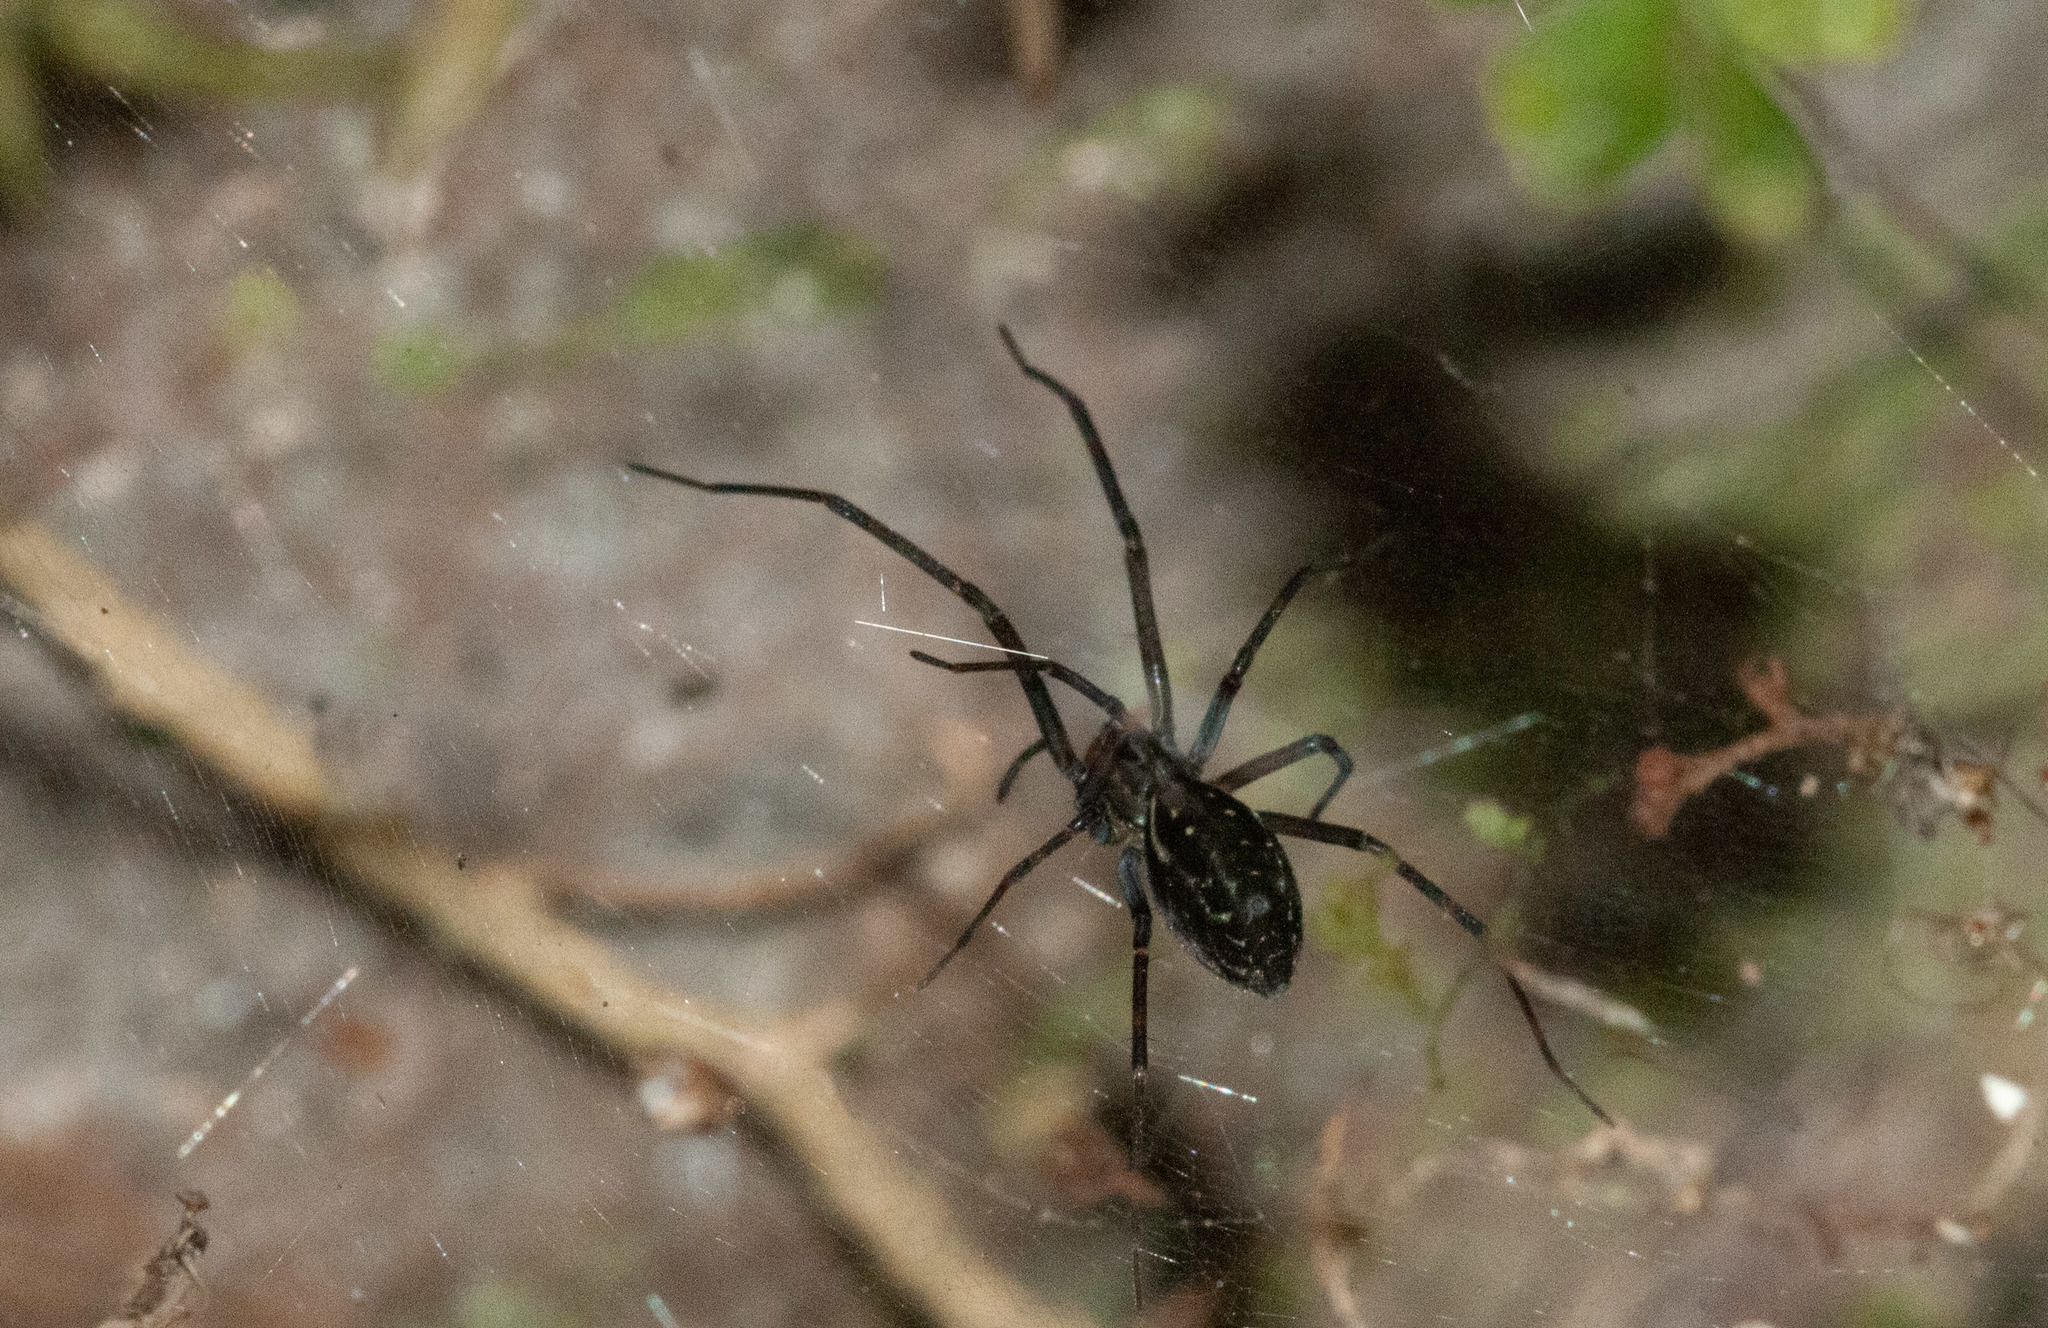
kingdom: Animalia
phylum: Arthropoda
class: Arachnida
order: Araneae
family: Desidae
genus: Corasoides
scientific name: Corasoides australis
